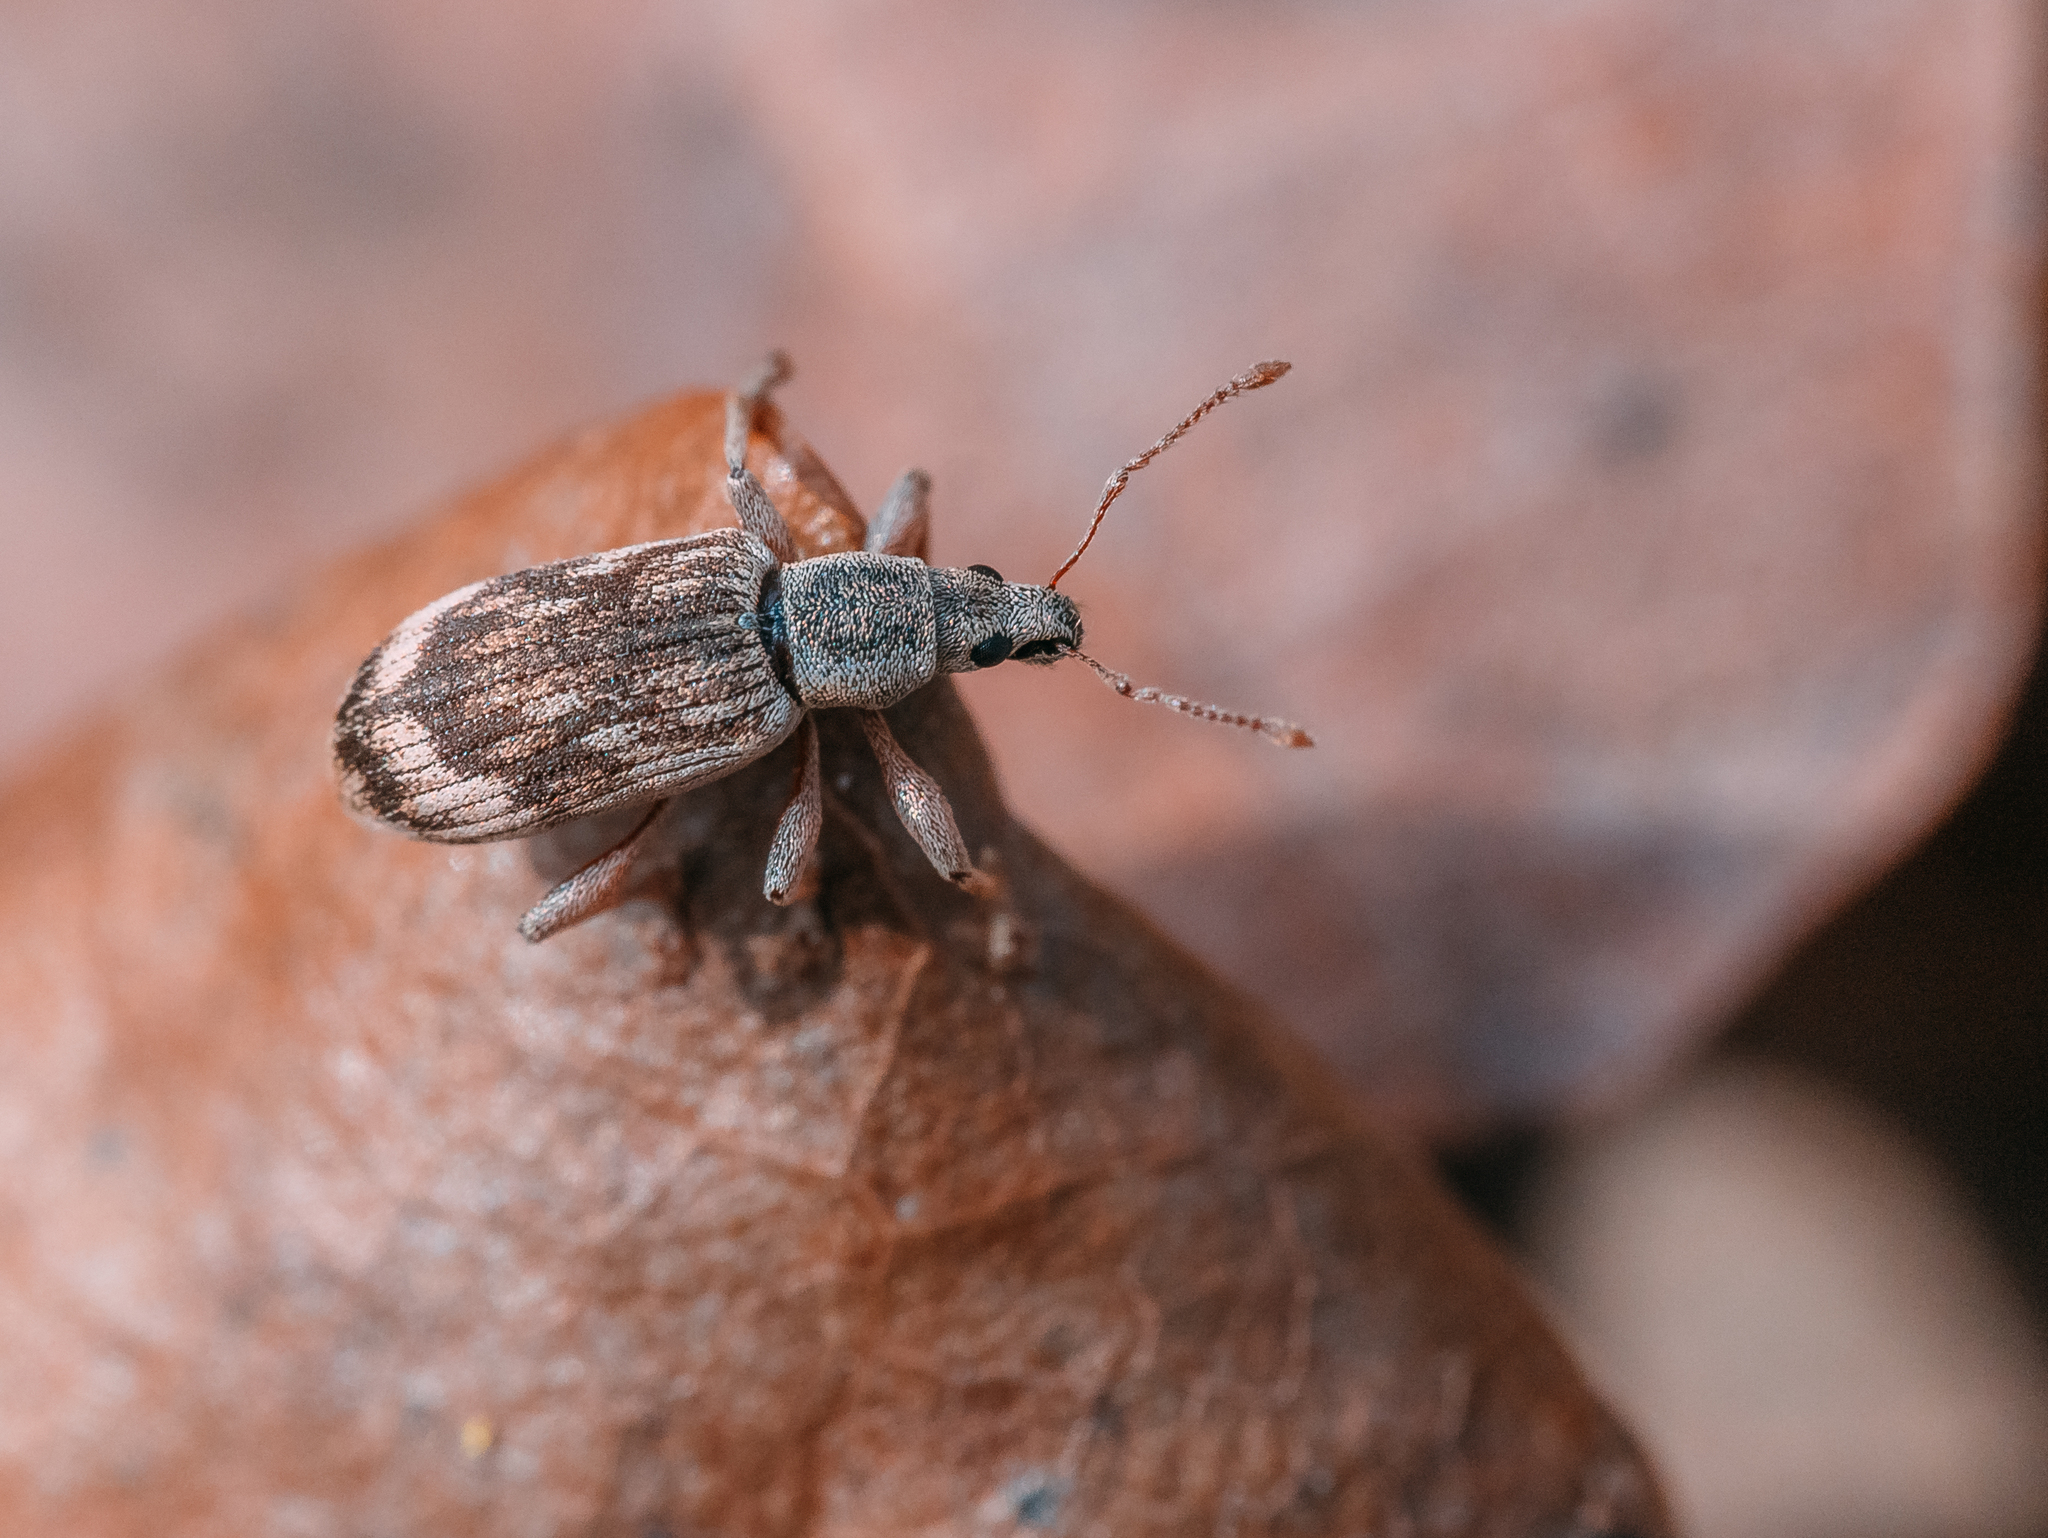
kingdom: Animalia
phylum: Arthropoda
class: Insecta
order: Coleoptera
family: Curculionidae
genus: Polydrusus
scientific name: Polydrusus tereticollis
